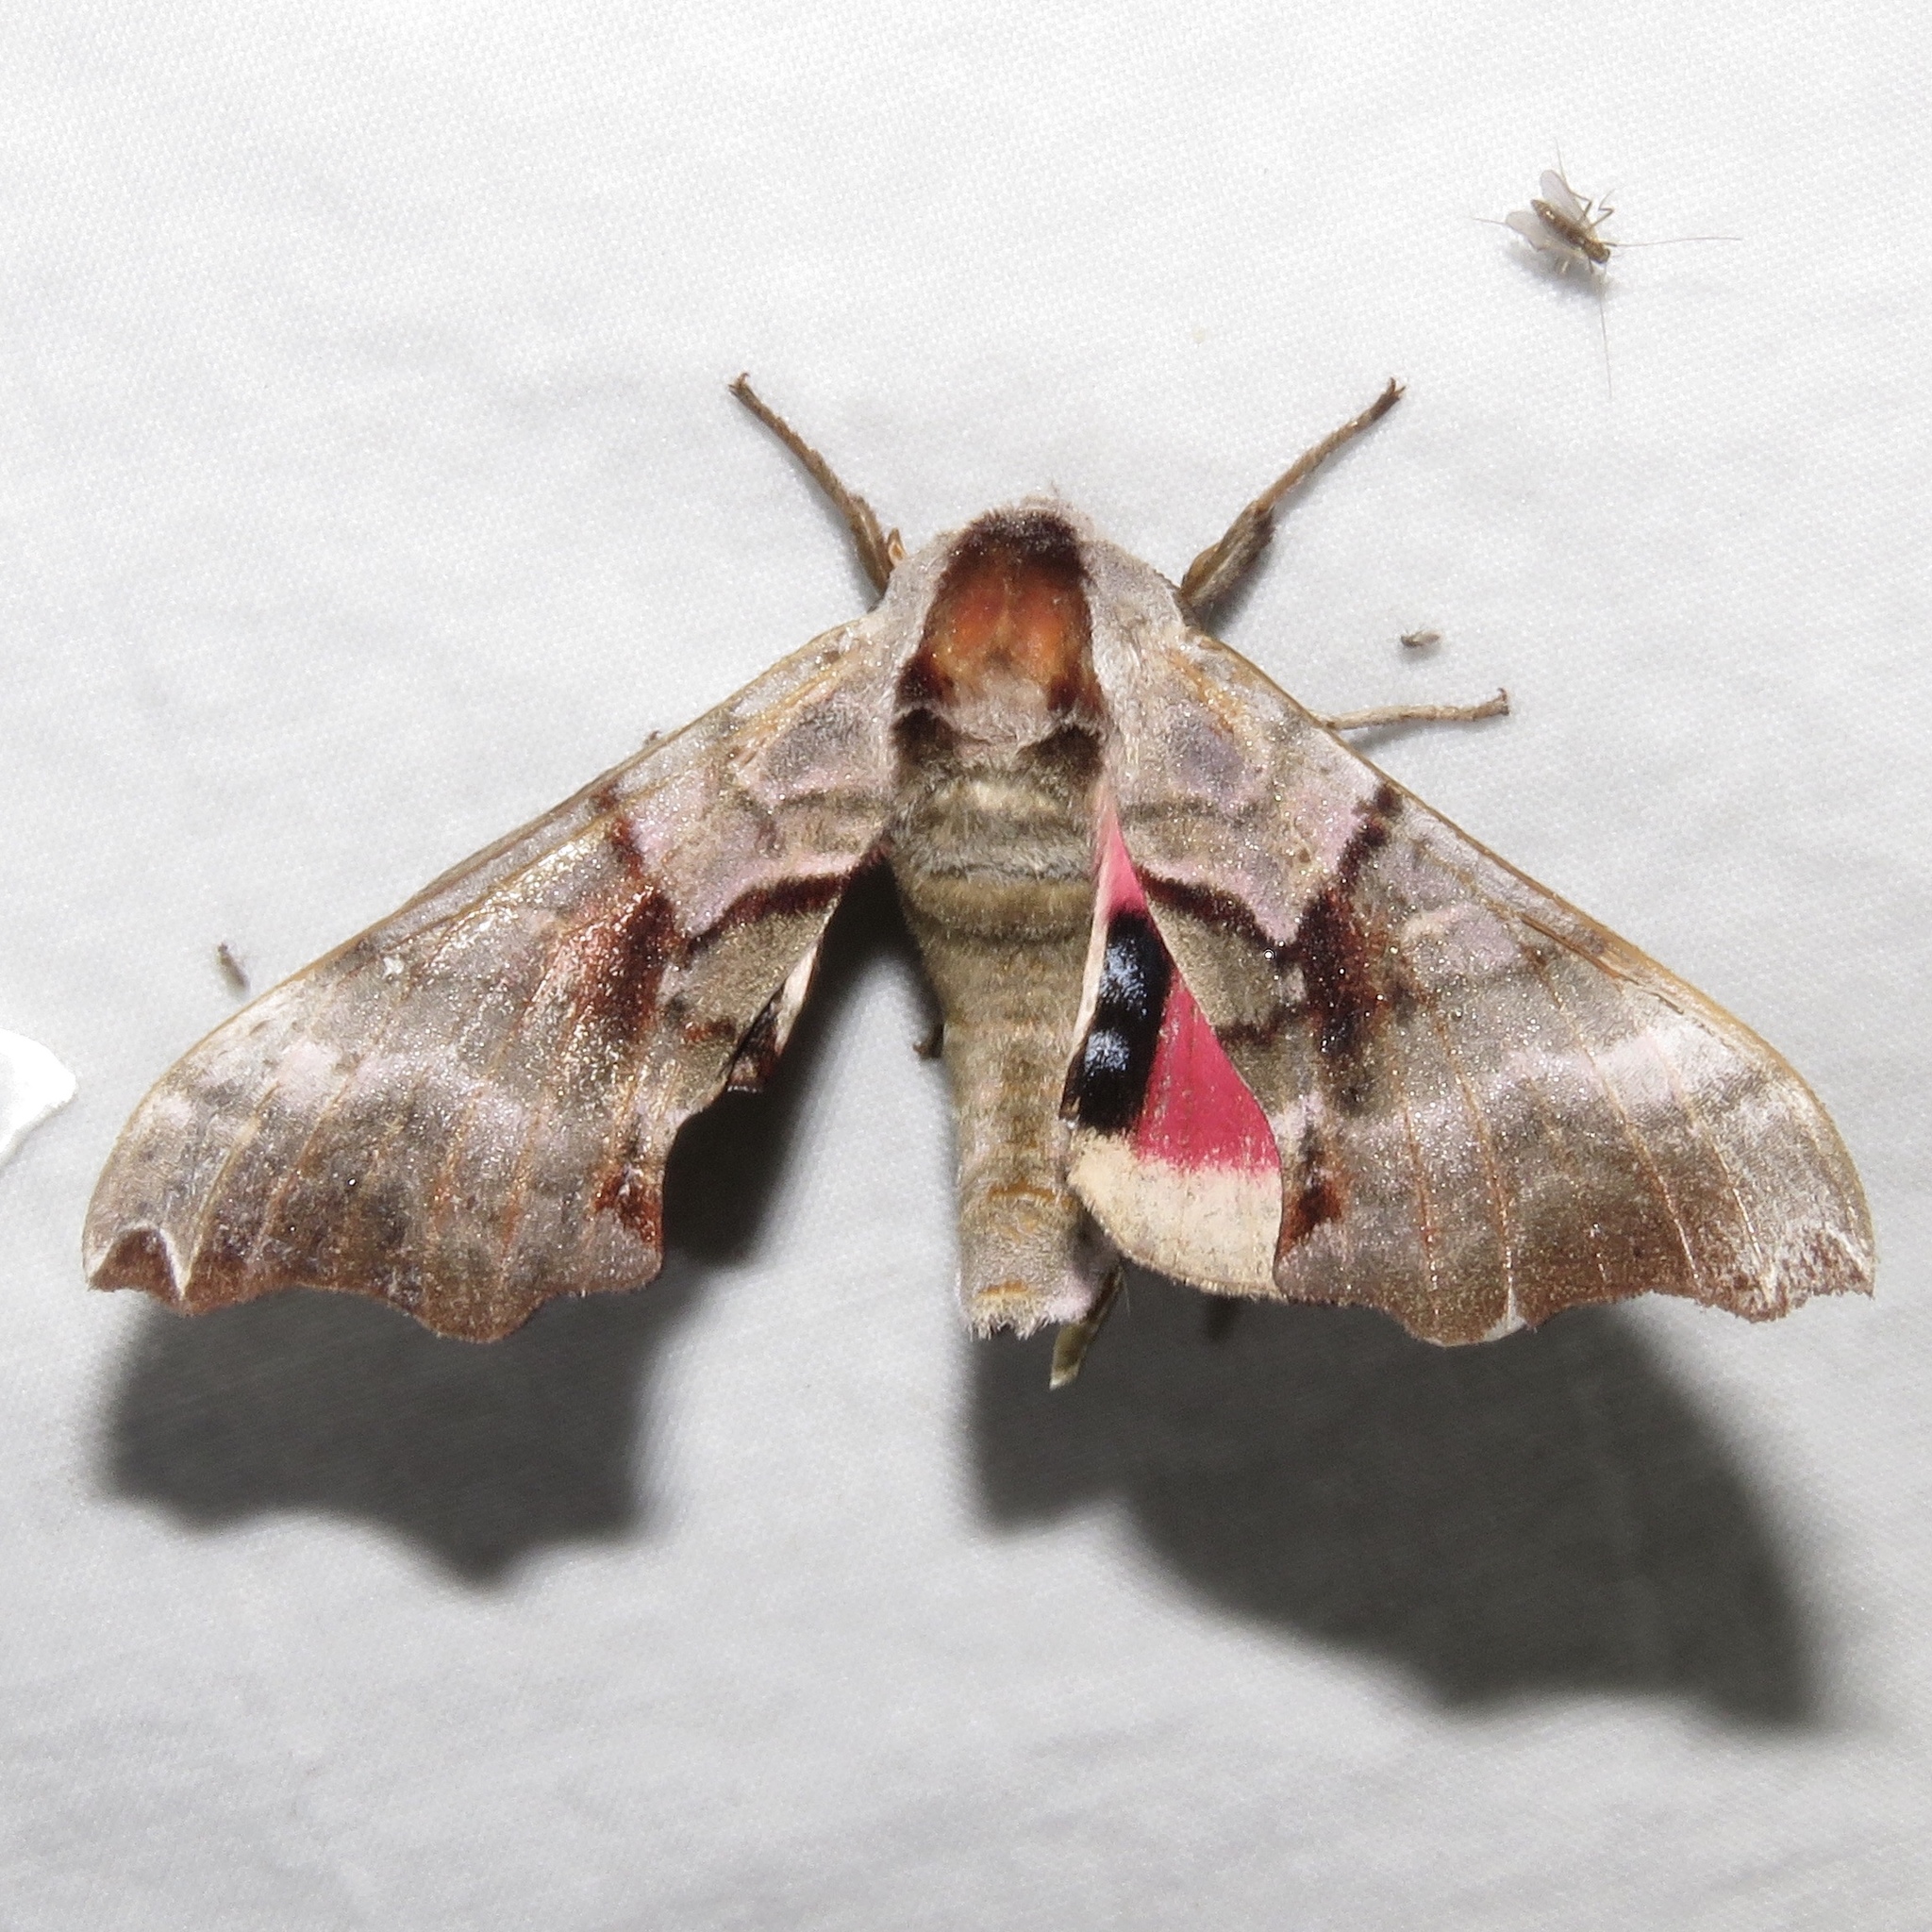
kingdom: Animalia
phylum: Arthropoda
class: Insecta
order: Lepidoptera
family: Sphingidae
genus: Smerinthus
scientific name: Smerinthus jamaicensis
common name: Twin spotted sphinx
